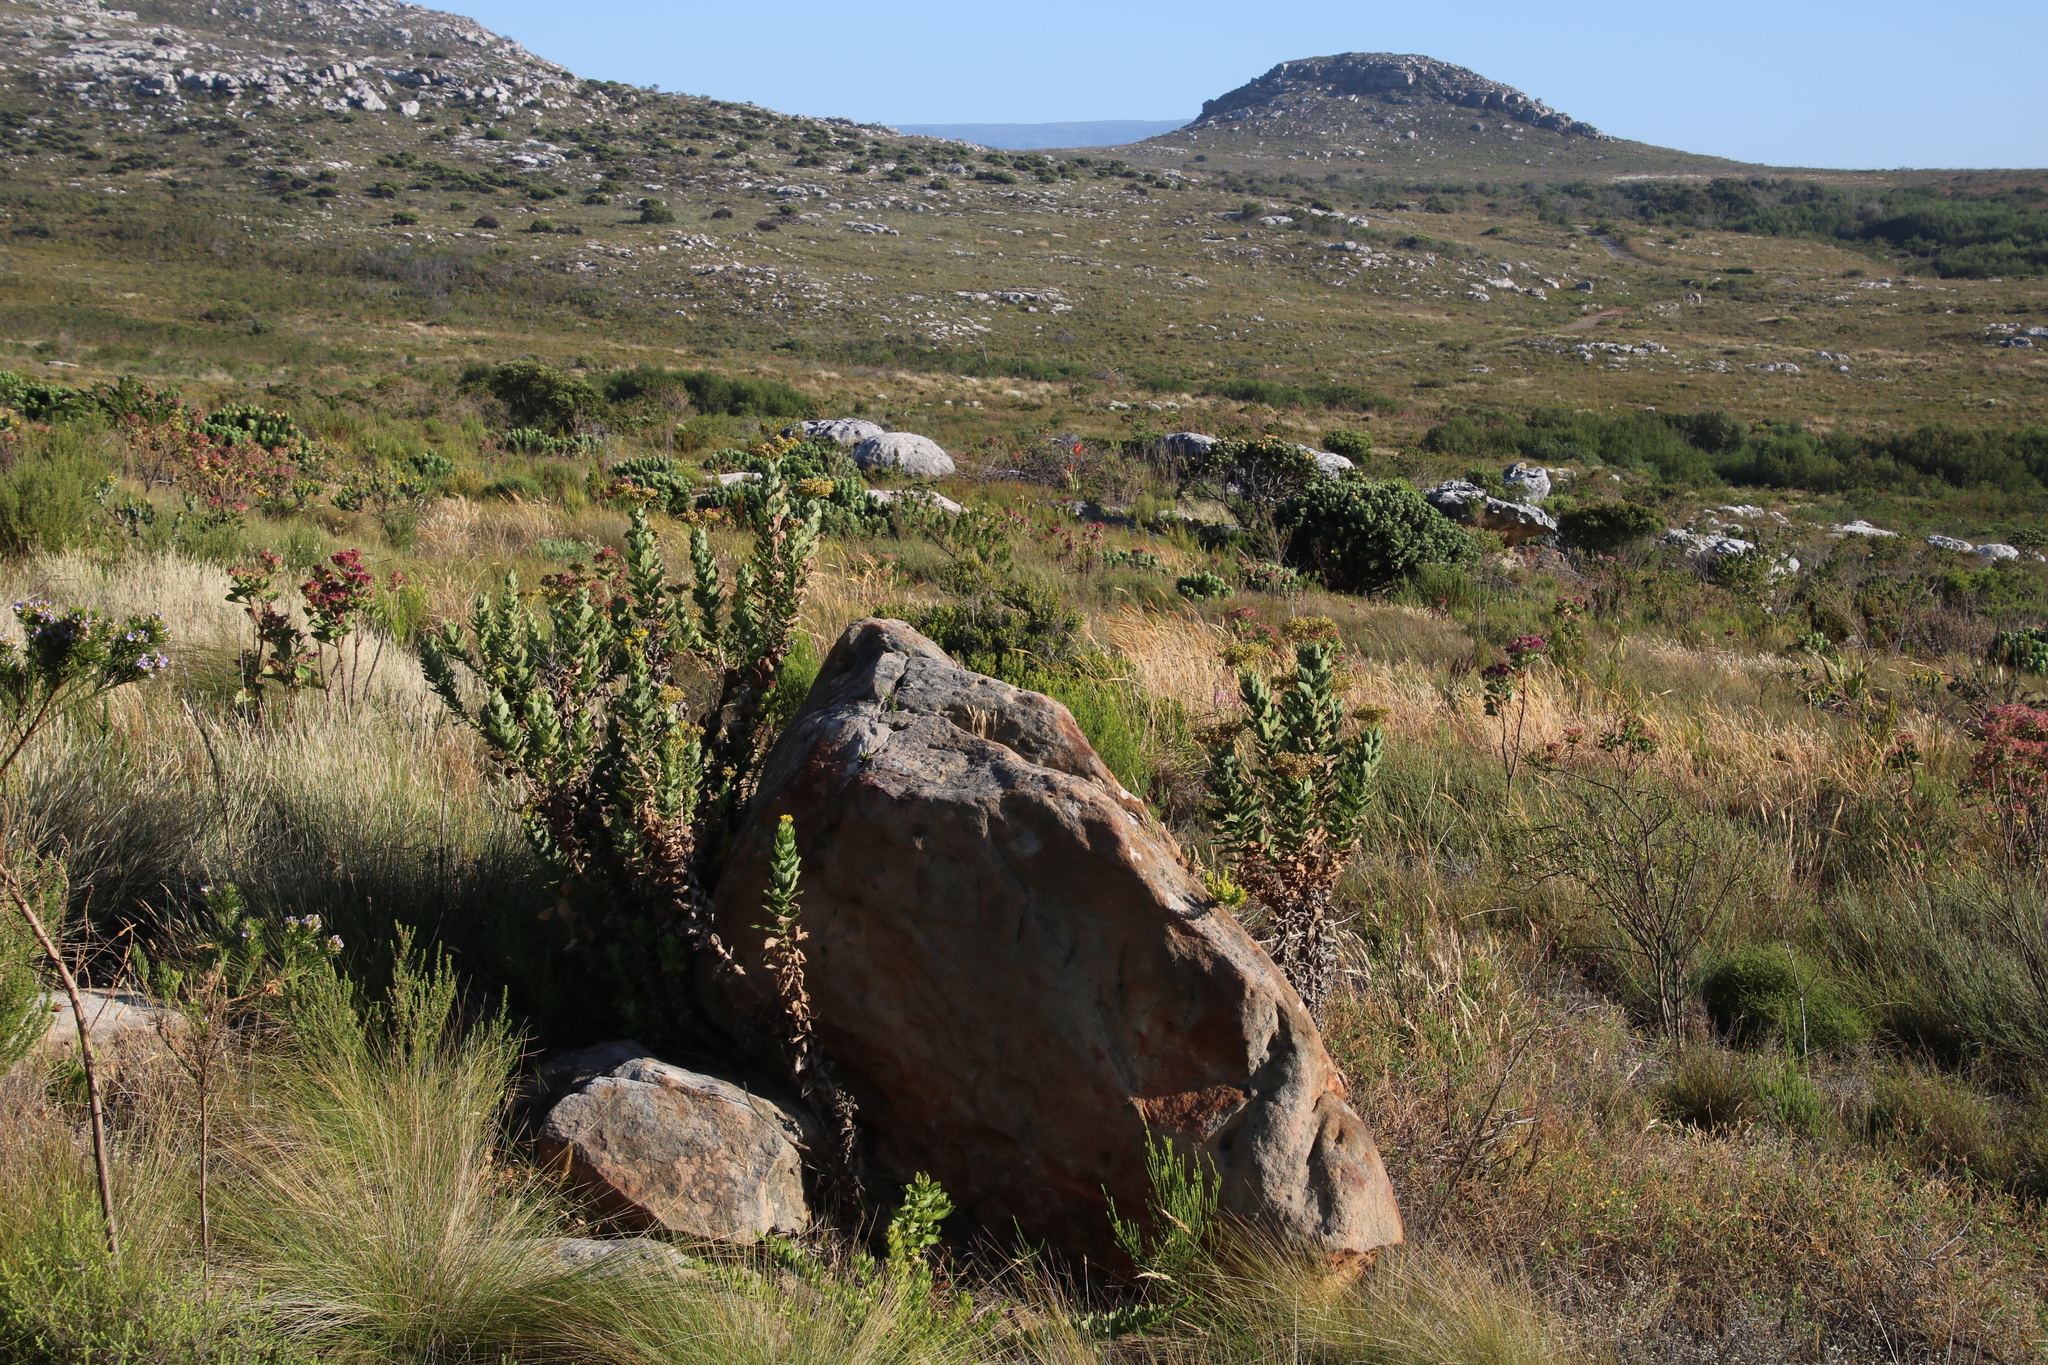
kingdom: Plantae
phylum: Tracheophyta
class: Magnoliopsida
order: Asterales
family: Asteraceae
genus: Senecio
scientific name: Senecio rigidus
